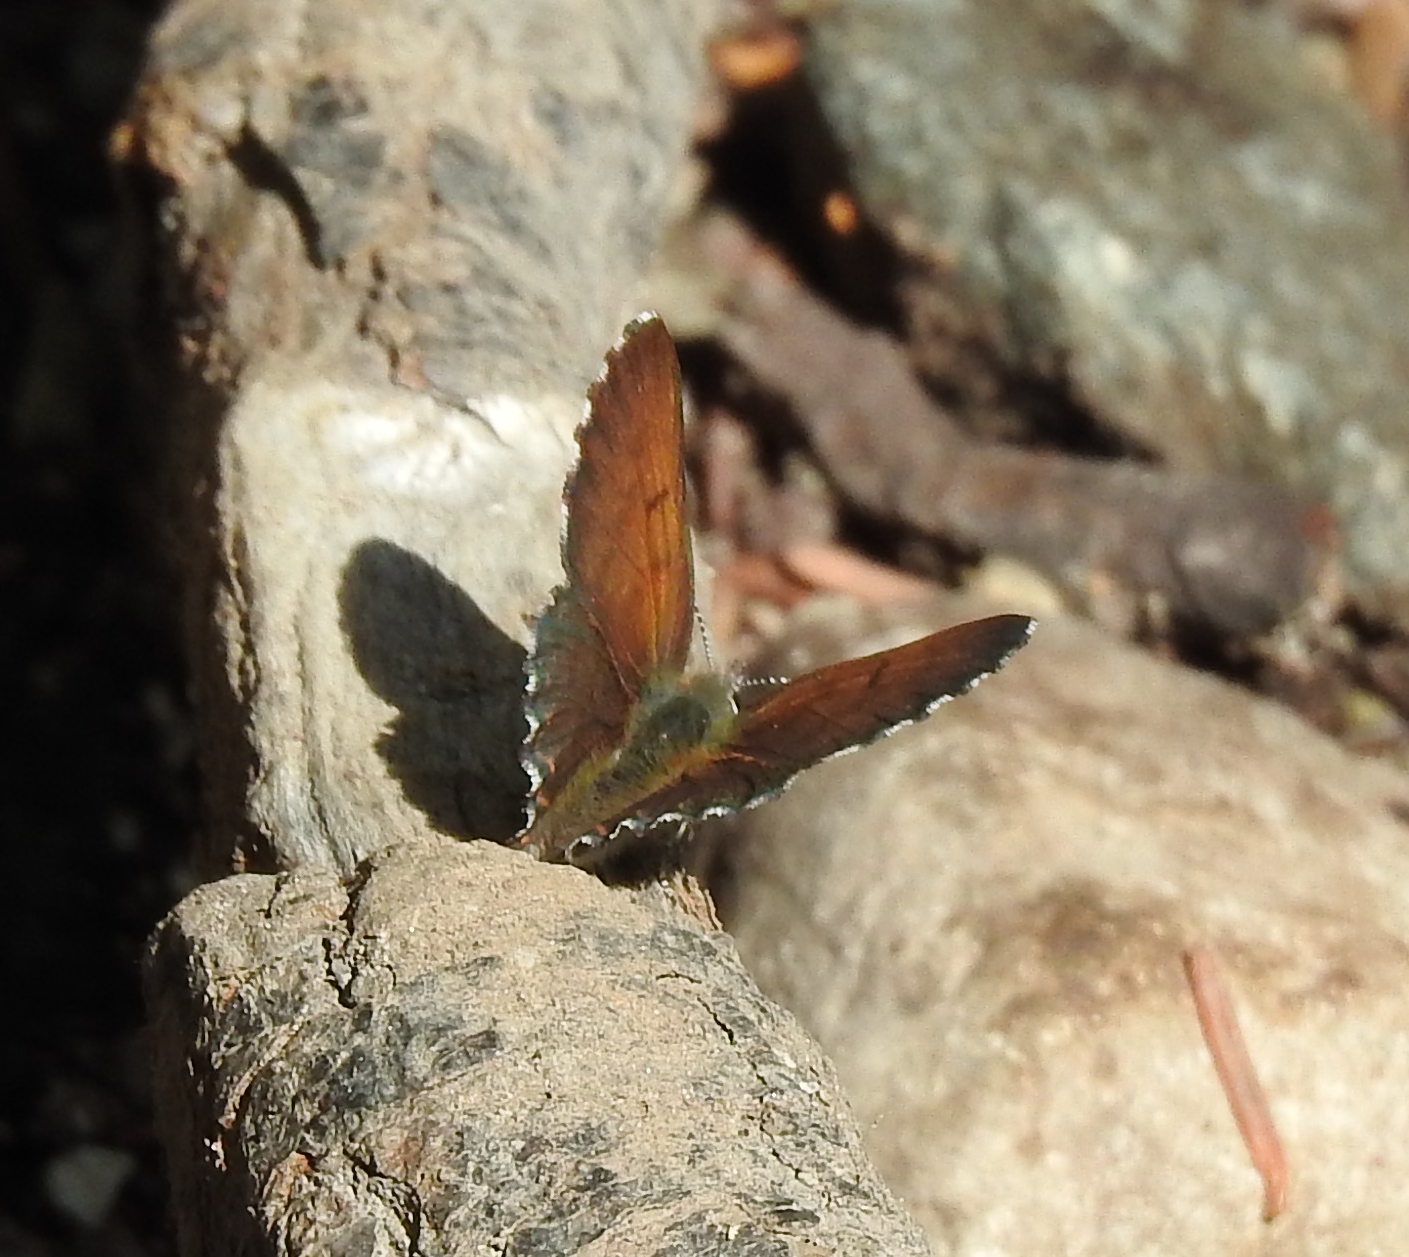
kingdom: Animalia
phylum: Arthropoda
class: Insecta
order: Lepidoptera
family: Lycaenidae
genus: Tharsalea
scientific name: Tharsalea mariposa
